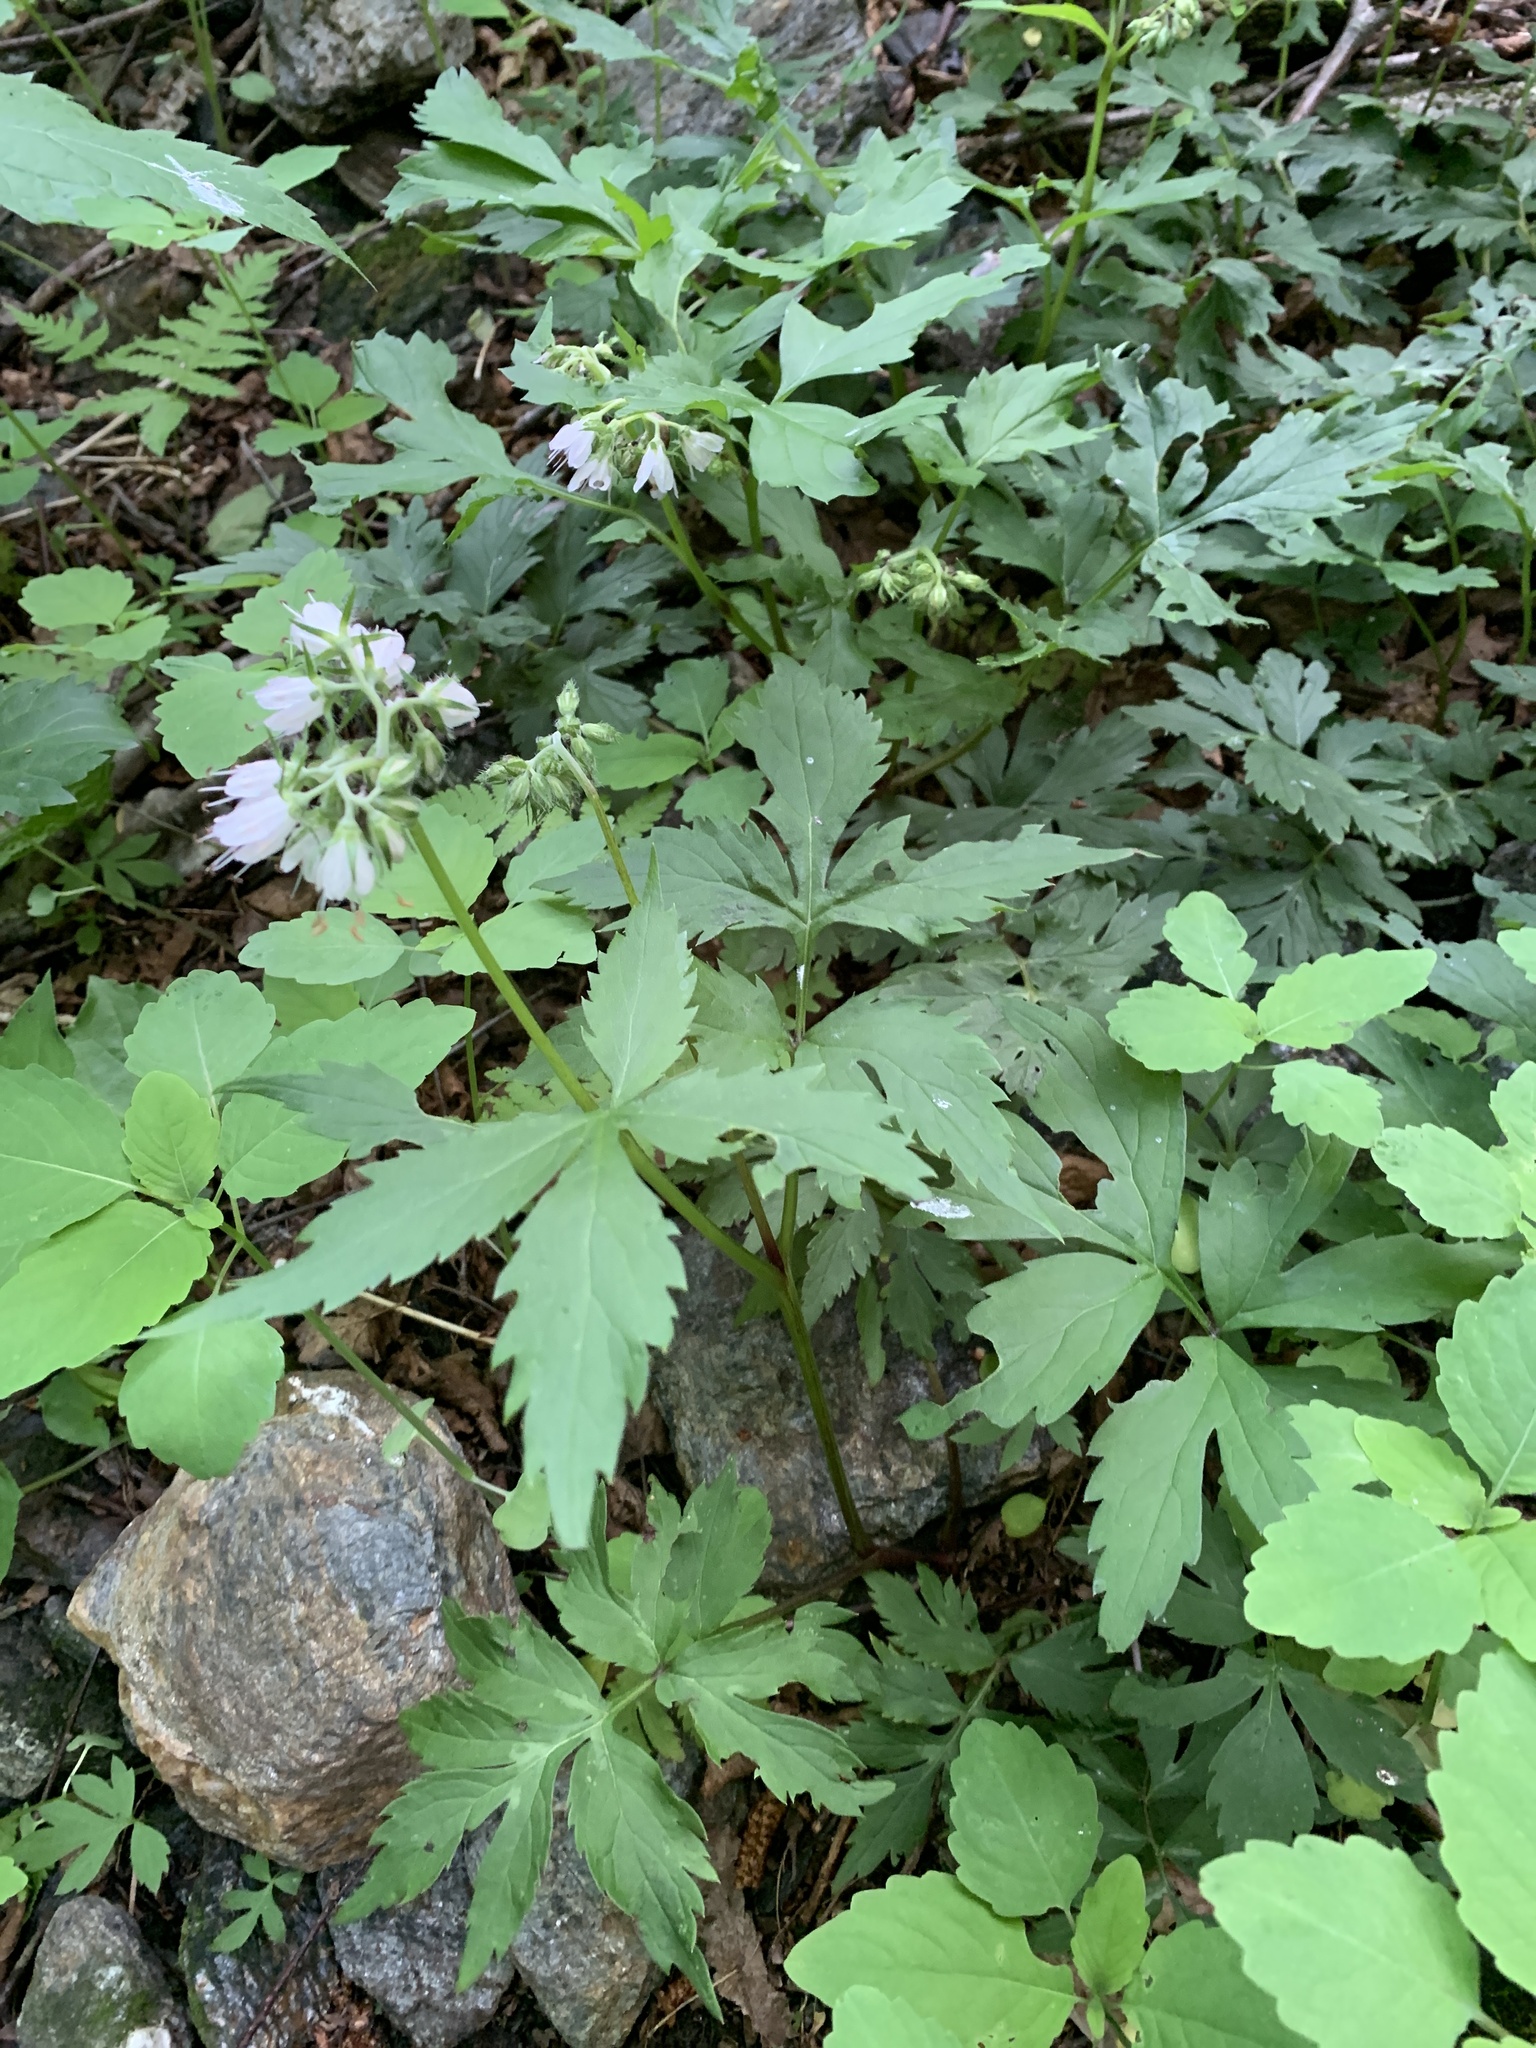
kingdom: Plantae
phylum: Tracheophyta
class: Magnoliopsida
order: Boraginales
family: Hydrophyllaceae
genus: Hydrophyllum
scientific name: Hydrophyllum virginianum
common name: Virginia waterleaf
